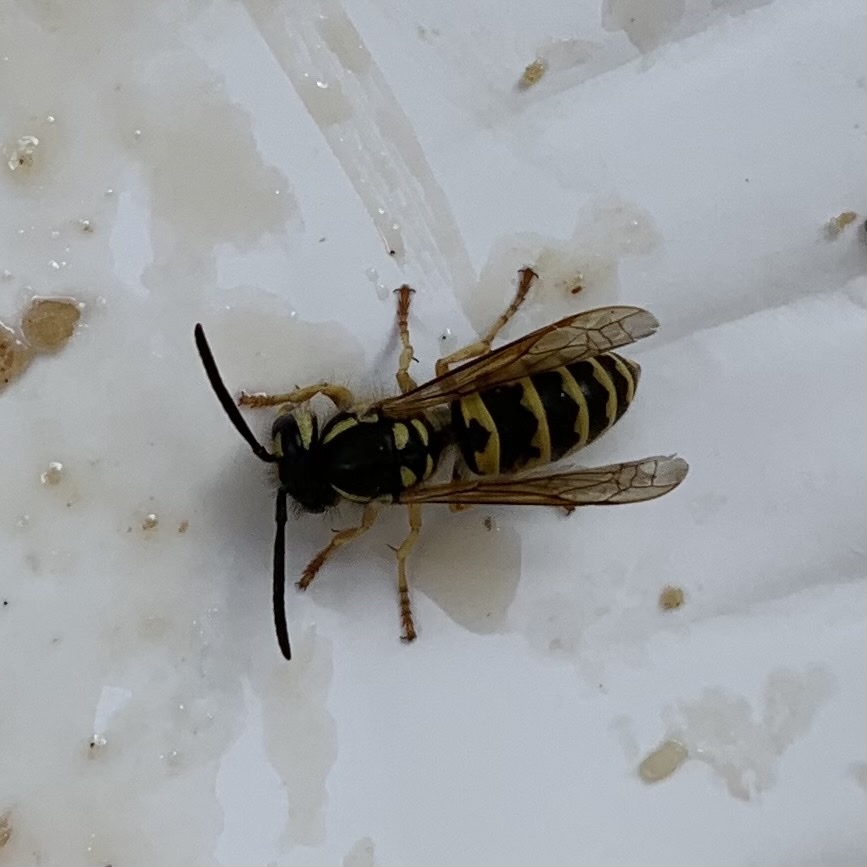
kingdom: Animalia
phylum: Arthropoda
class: Insecta
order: Hymenoptera
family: Vespidae
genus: Vespula
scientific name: Vespula flavopilosa
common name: Downy yellowjacket
